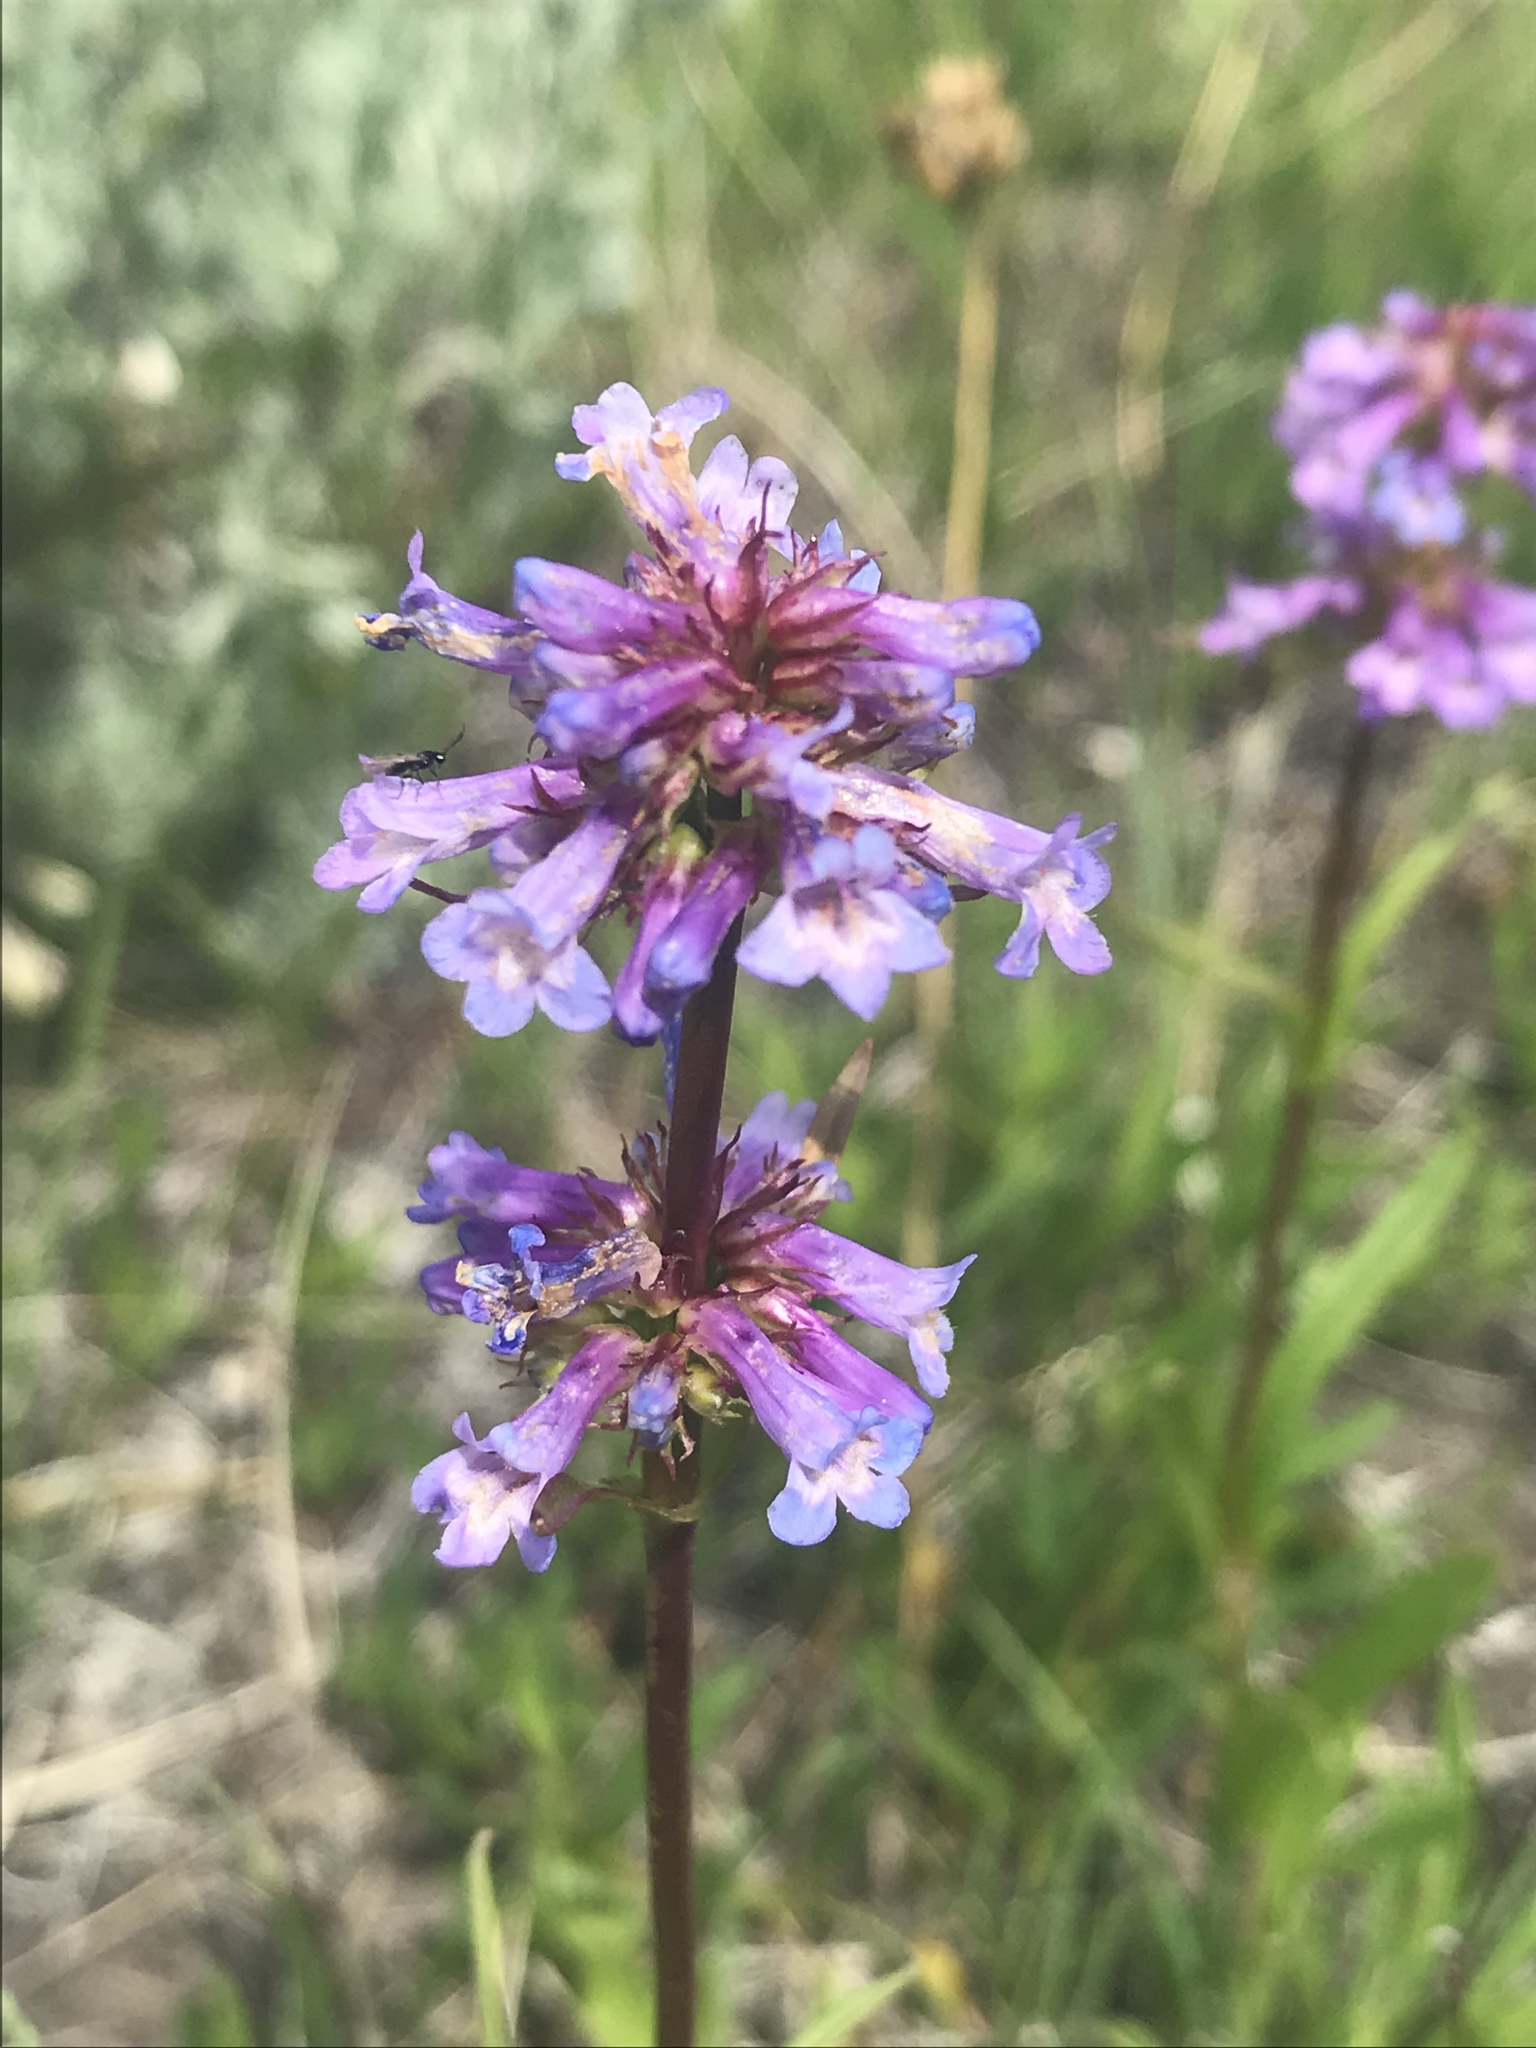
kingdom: Plantae
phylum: Tracheophyta
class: Magnoliopsida
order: Lamiales
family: Plantaginaceae
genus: Penstemon
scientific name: Penstemon procerus
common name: Small-flower penstemon
